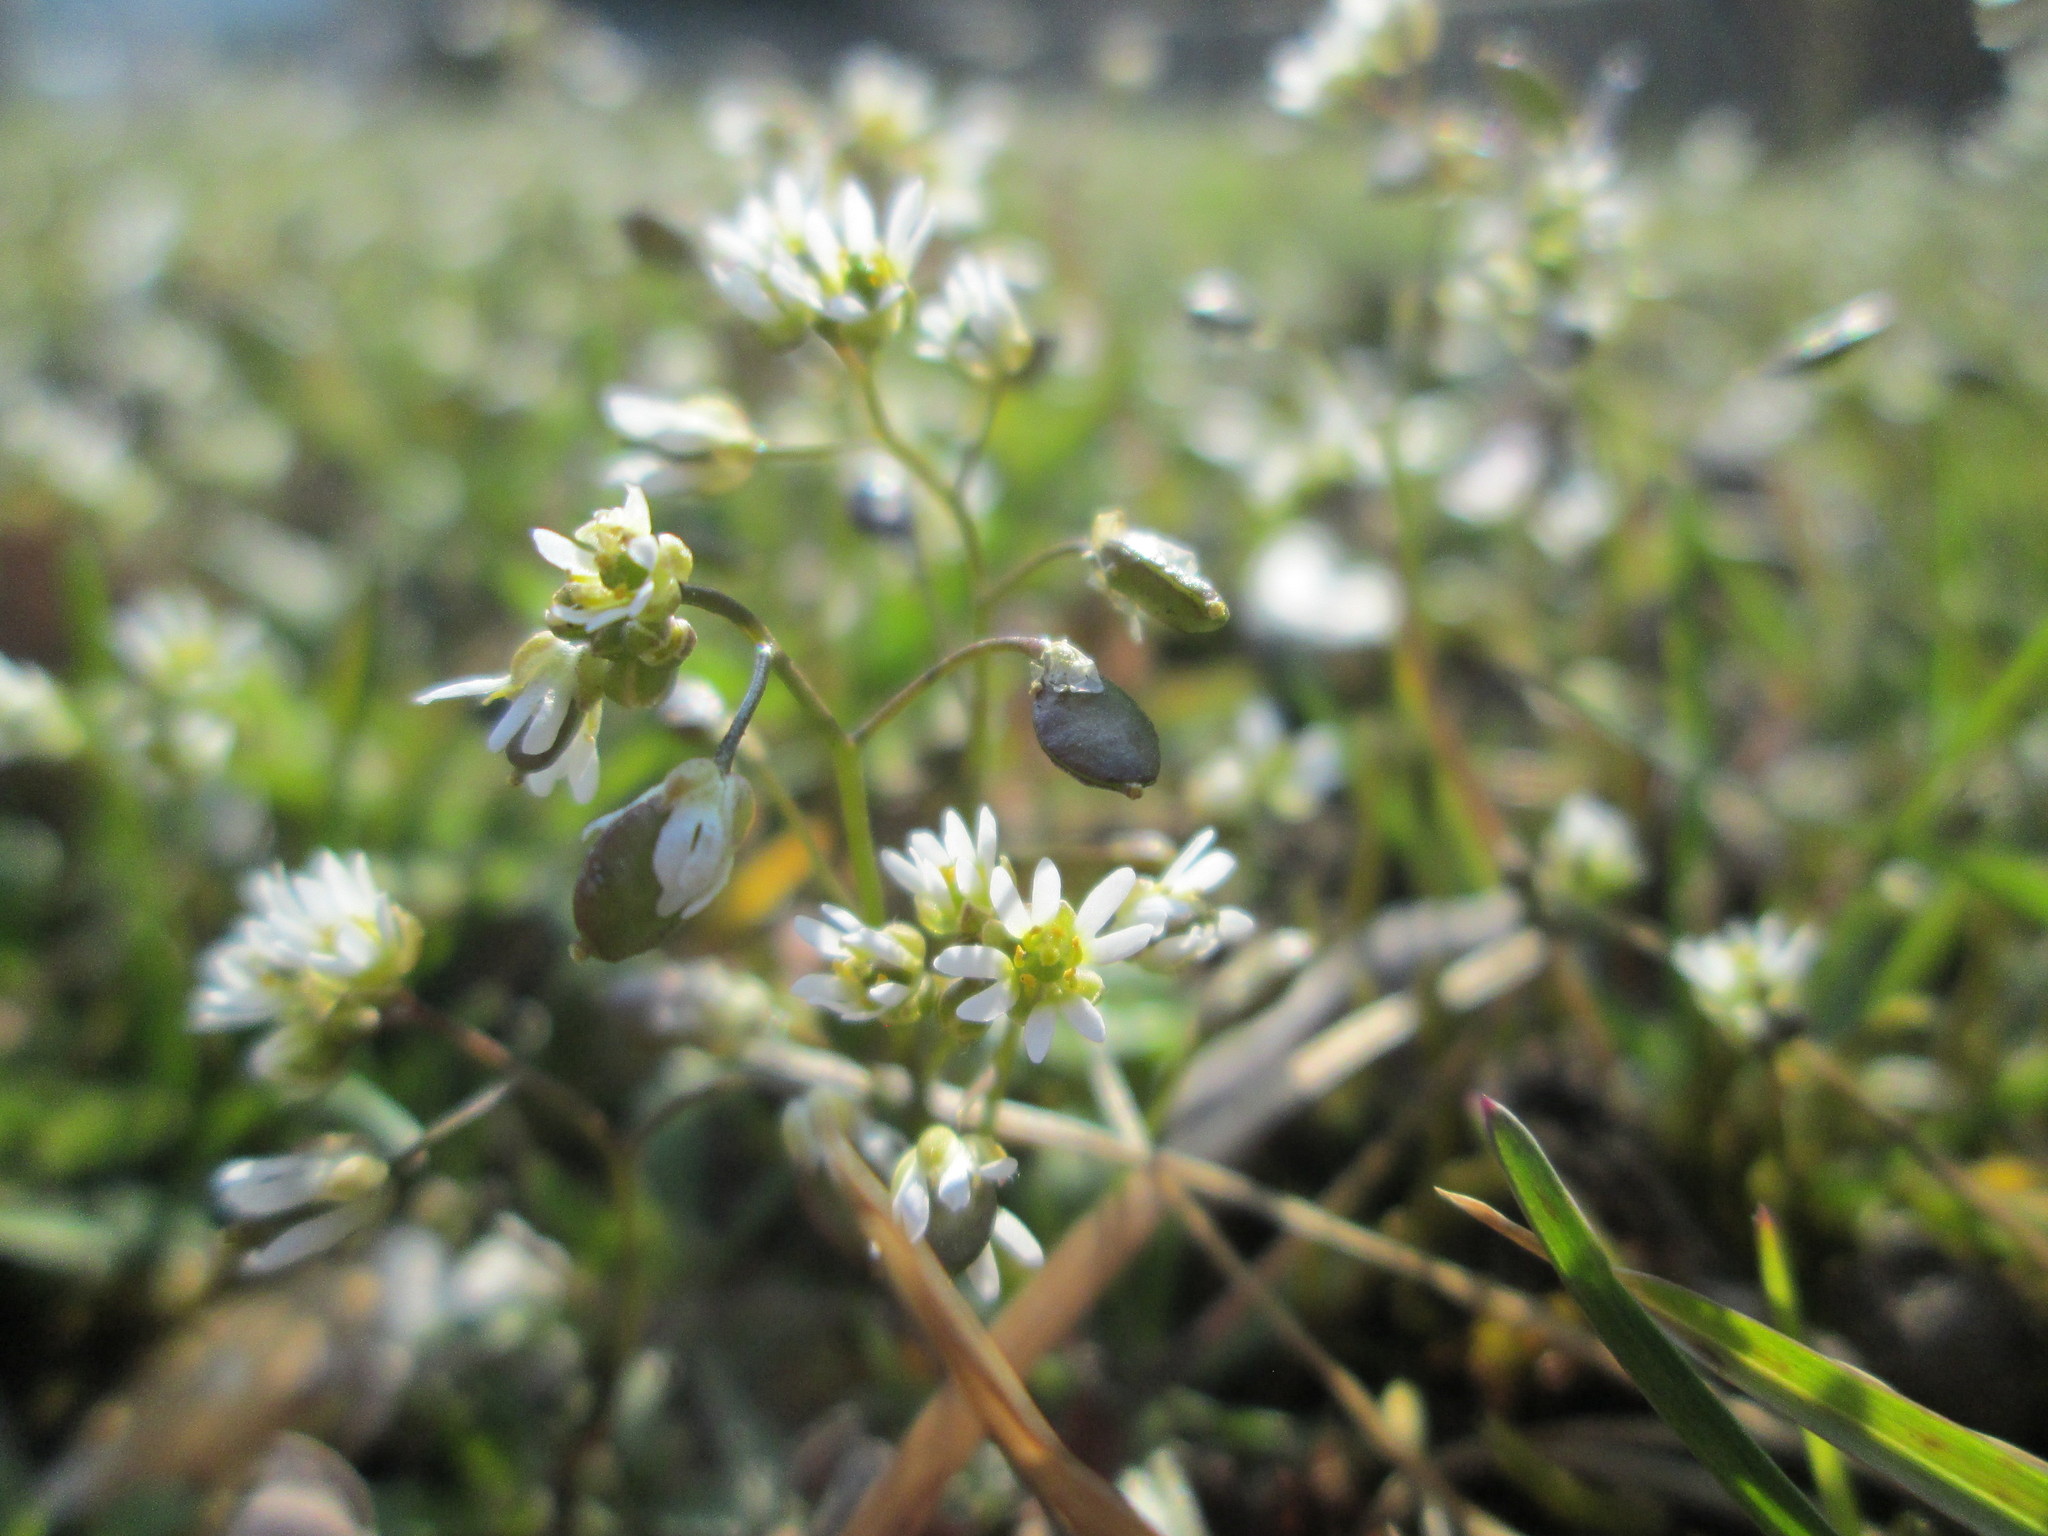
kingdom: Plantae
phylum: Tracheophyta
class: Magnoliopsida
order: Brassicales
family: Brassicaceae
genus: Draba
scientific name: Draba verna
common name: Spring draba
